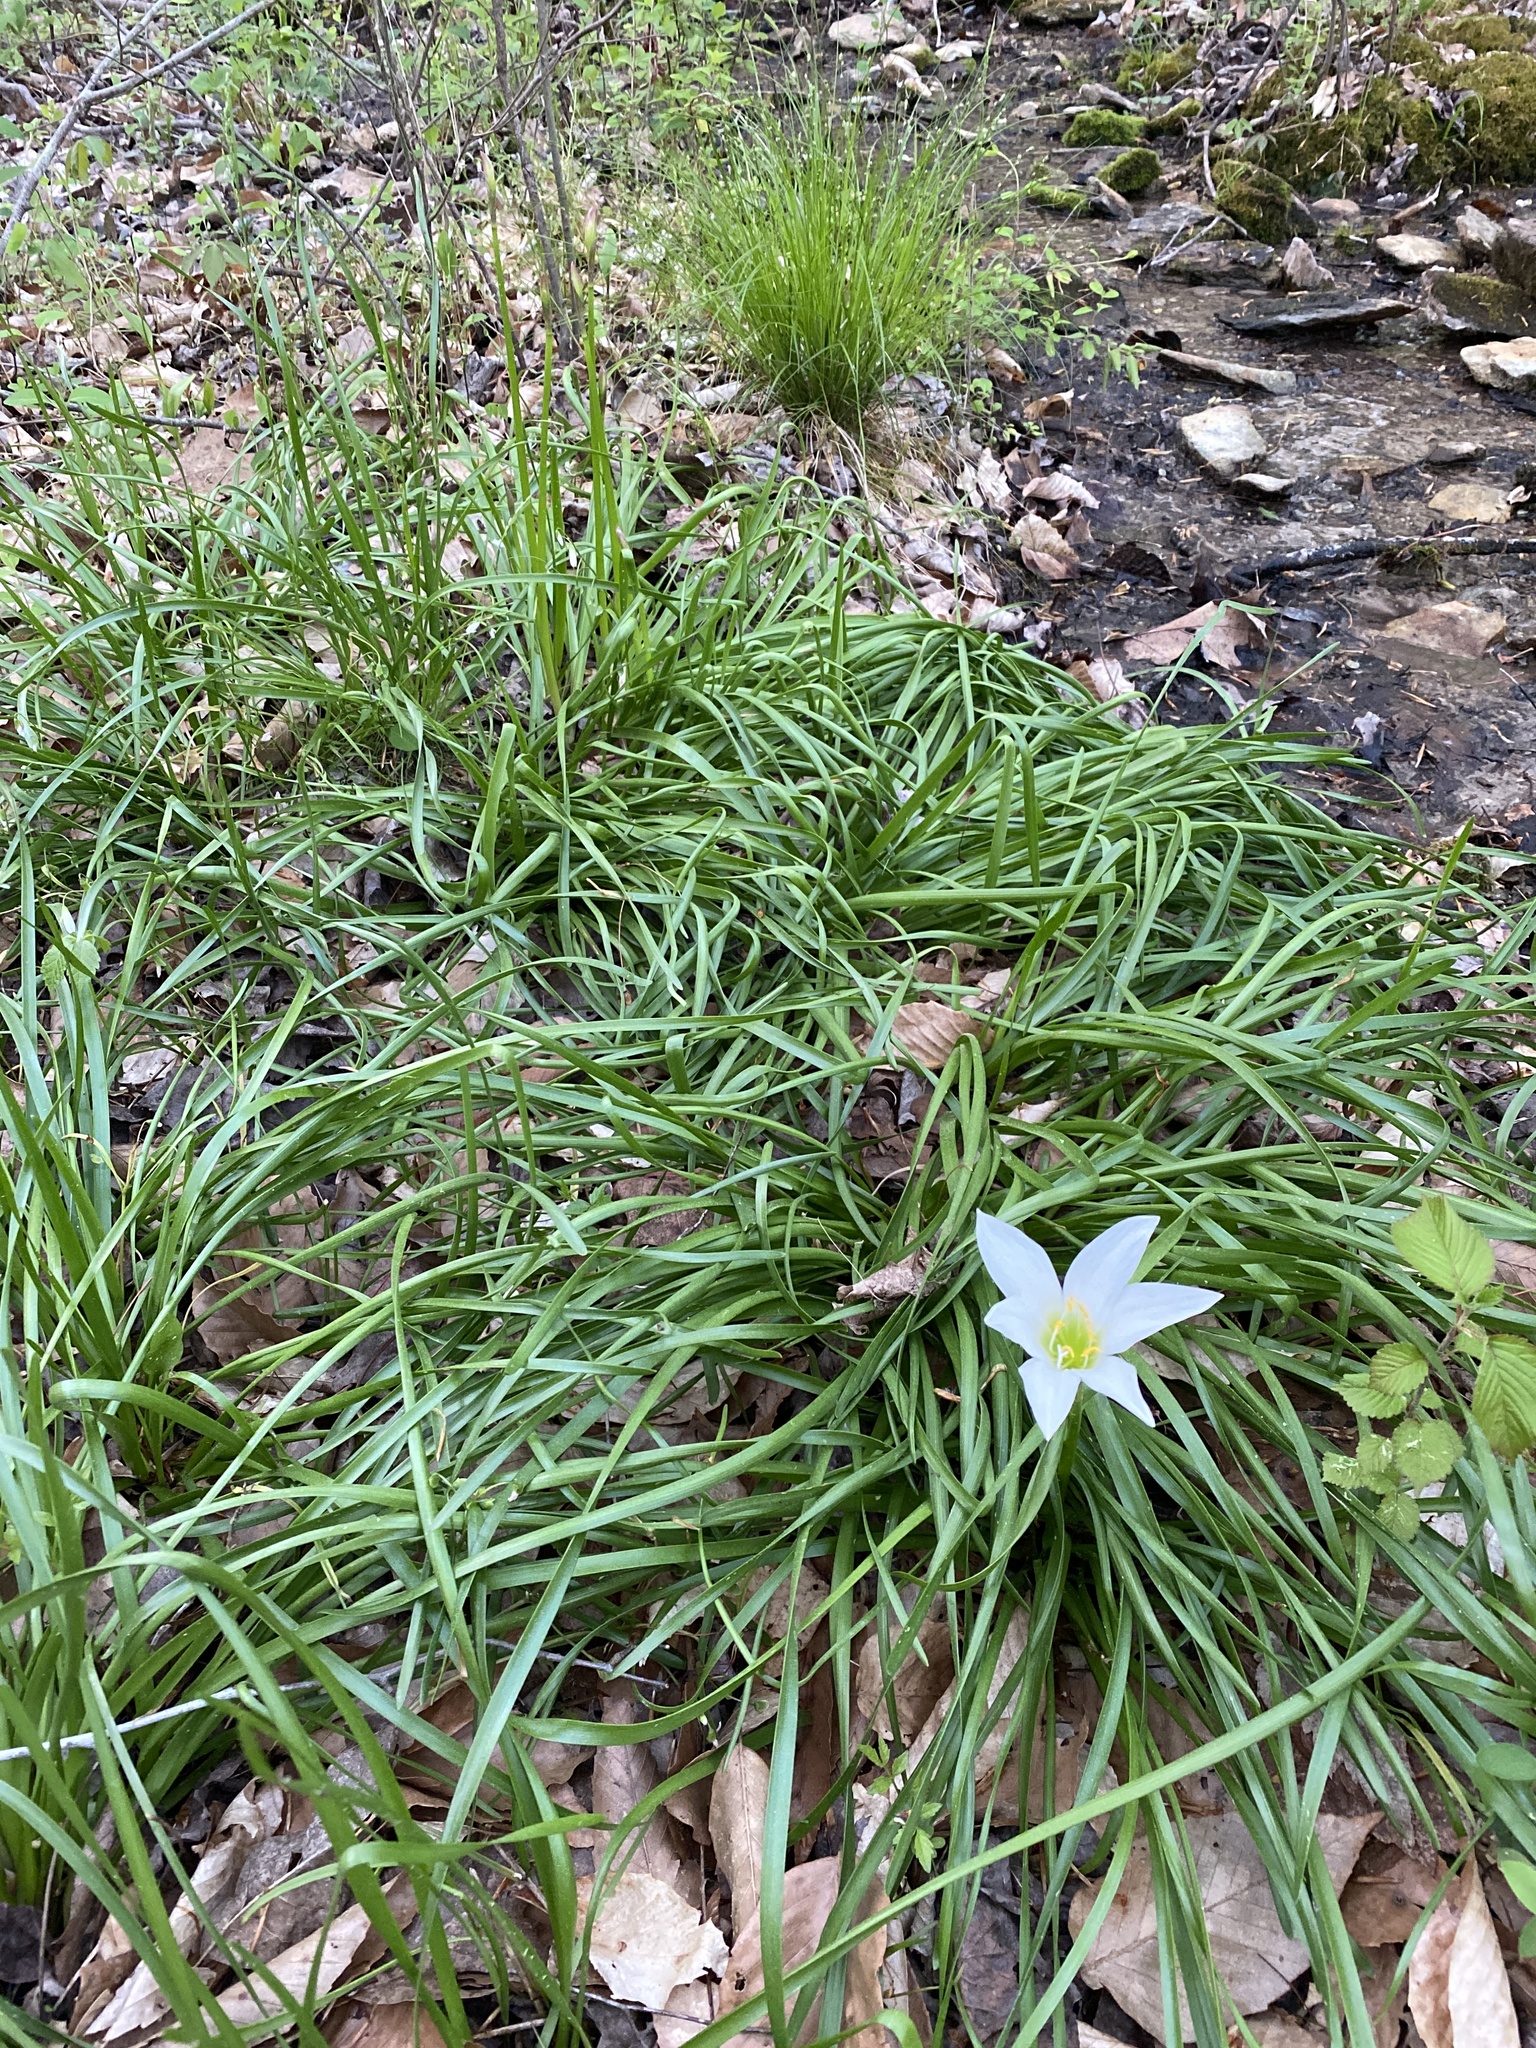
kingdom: Plantae
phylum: Tracheophyta
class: Liliopsida
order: Asparagales
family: Amaryllidaceae
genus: Zephyranthes
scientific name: Zephyranthes atamasco
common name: Atamasco lily
